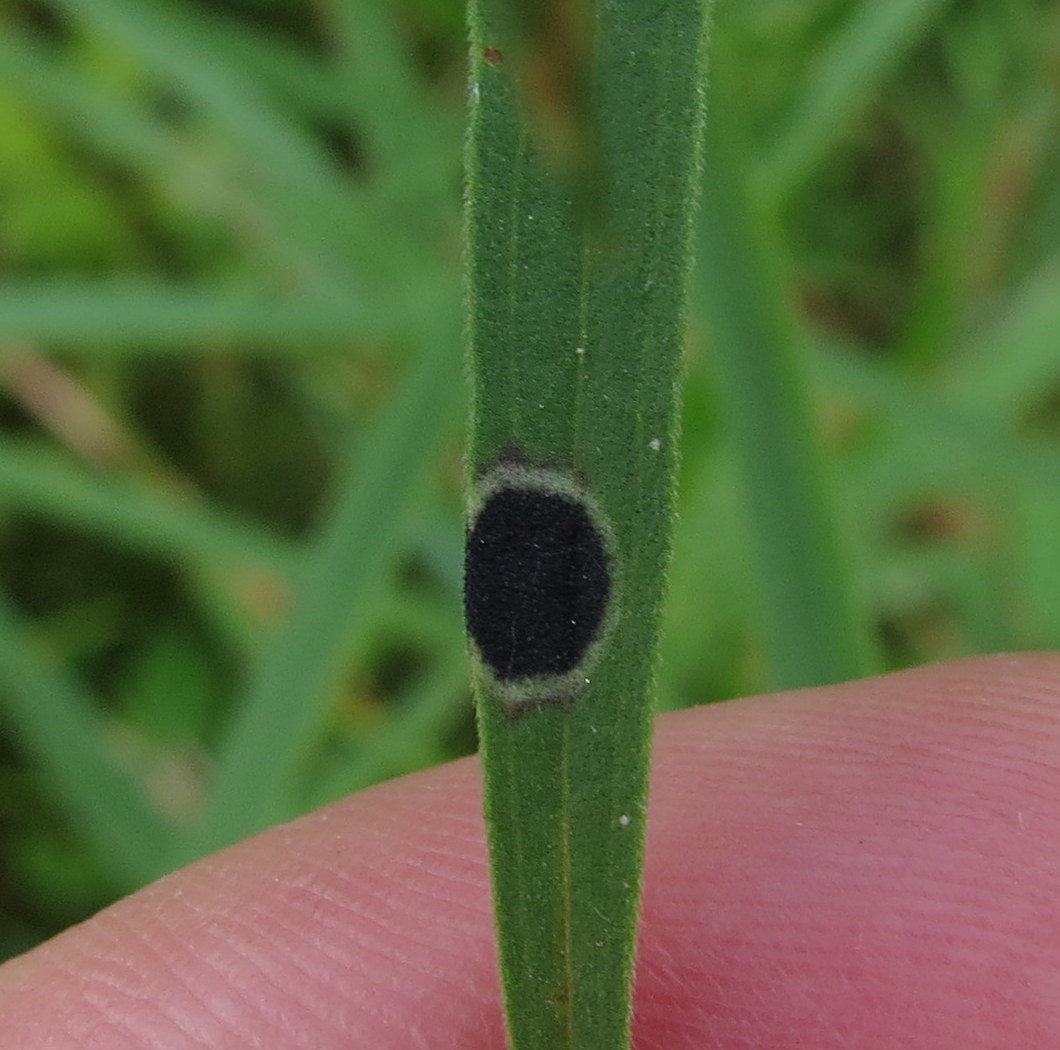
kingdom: Animalia
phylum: Arthropoda
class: Insecta
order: Diptera
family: Cecidomyiidae
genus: Asteromyia
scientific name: Asteromyia euthamiae
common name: Euthamia leaf gall midge
